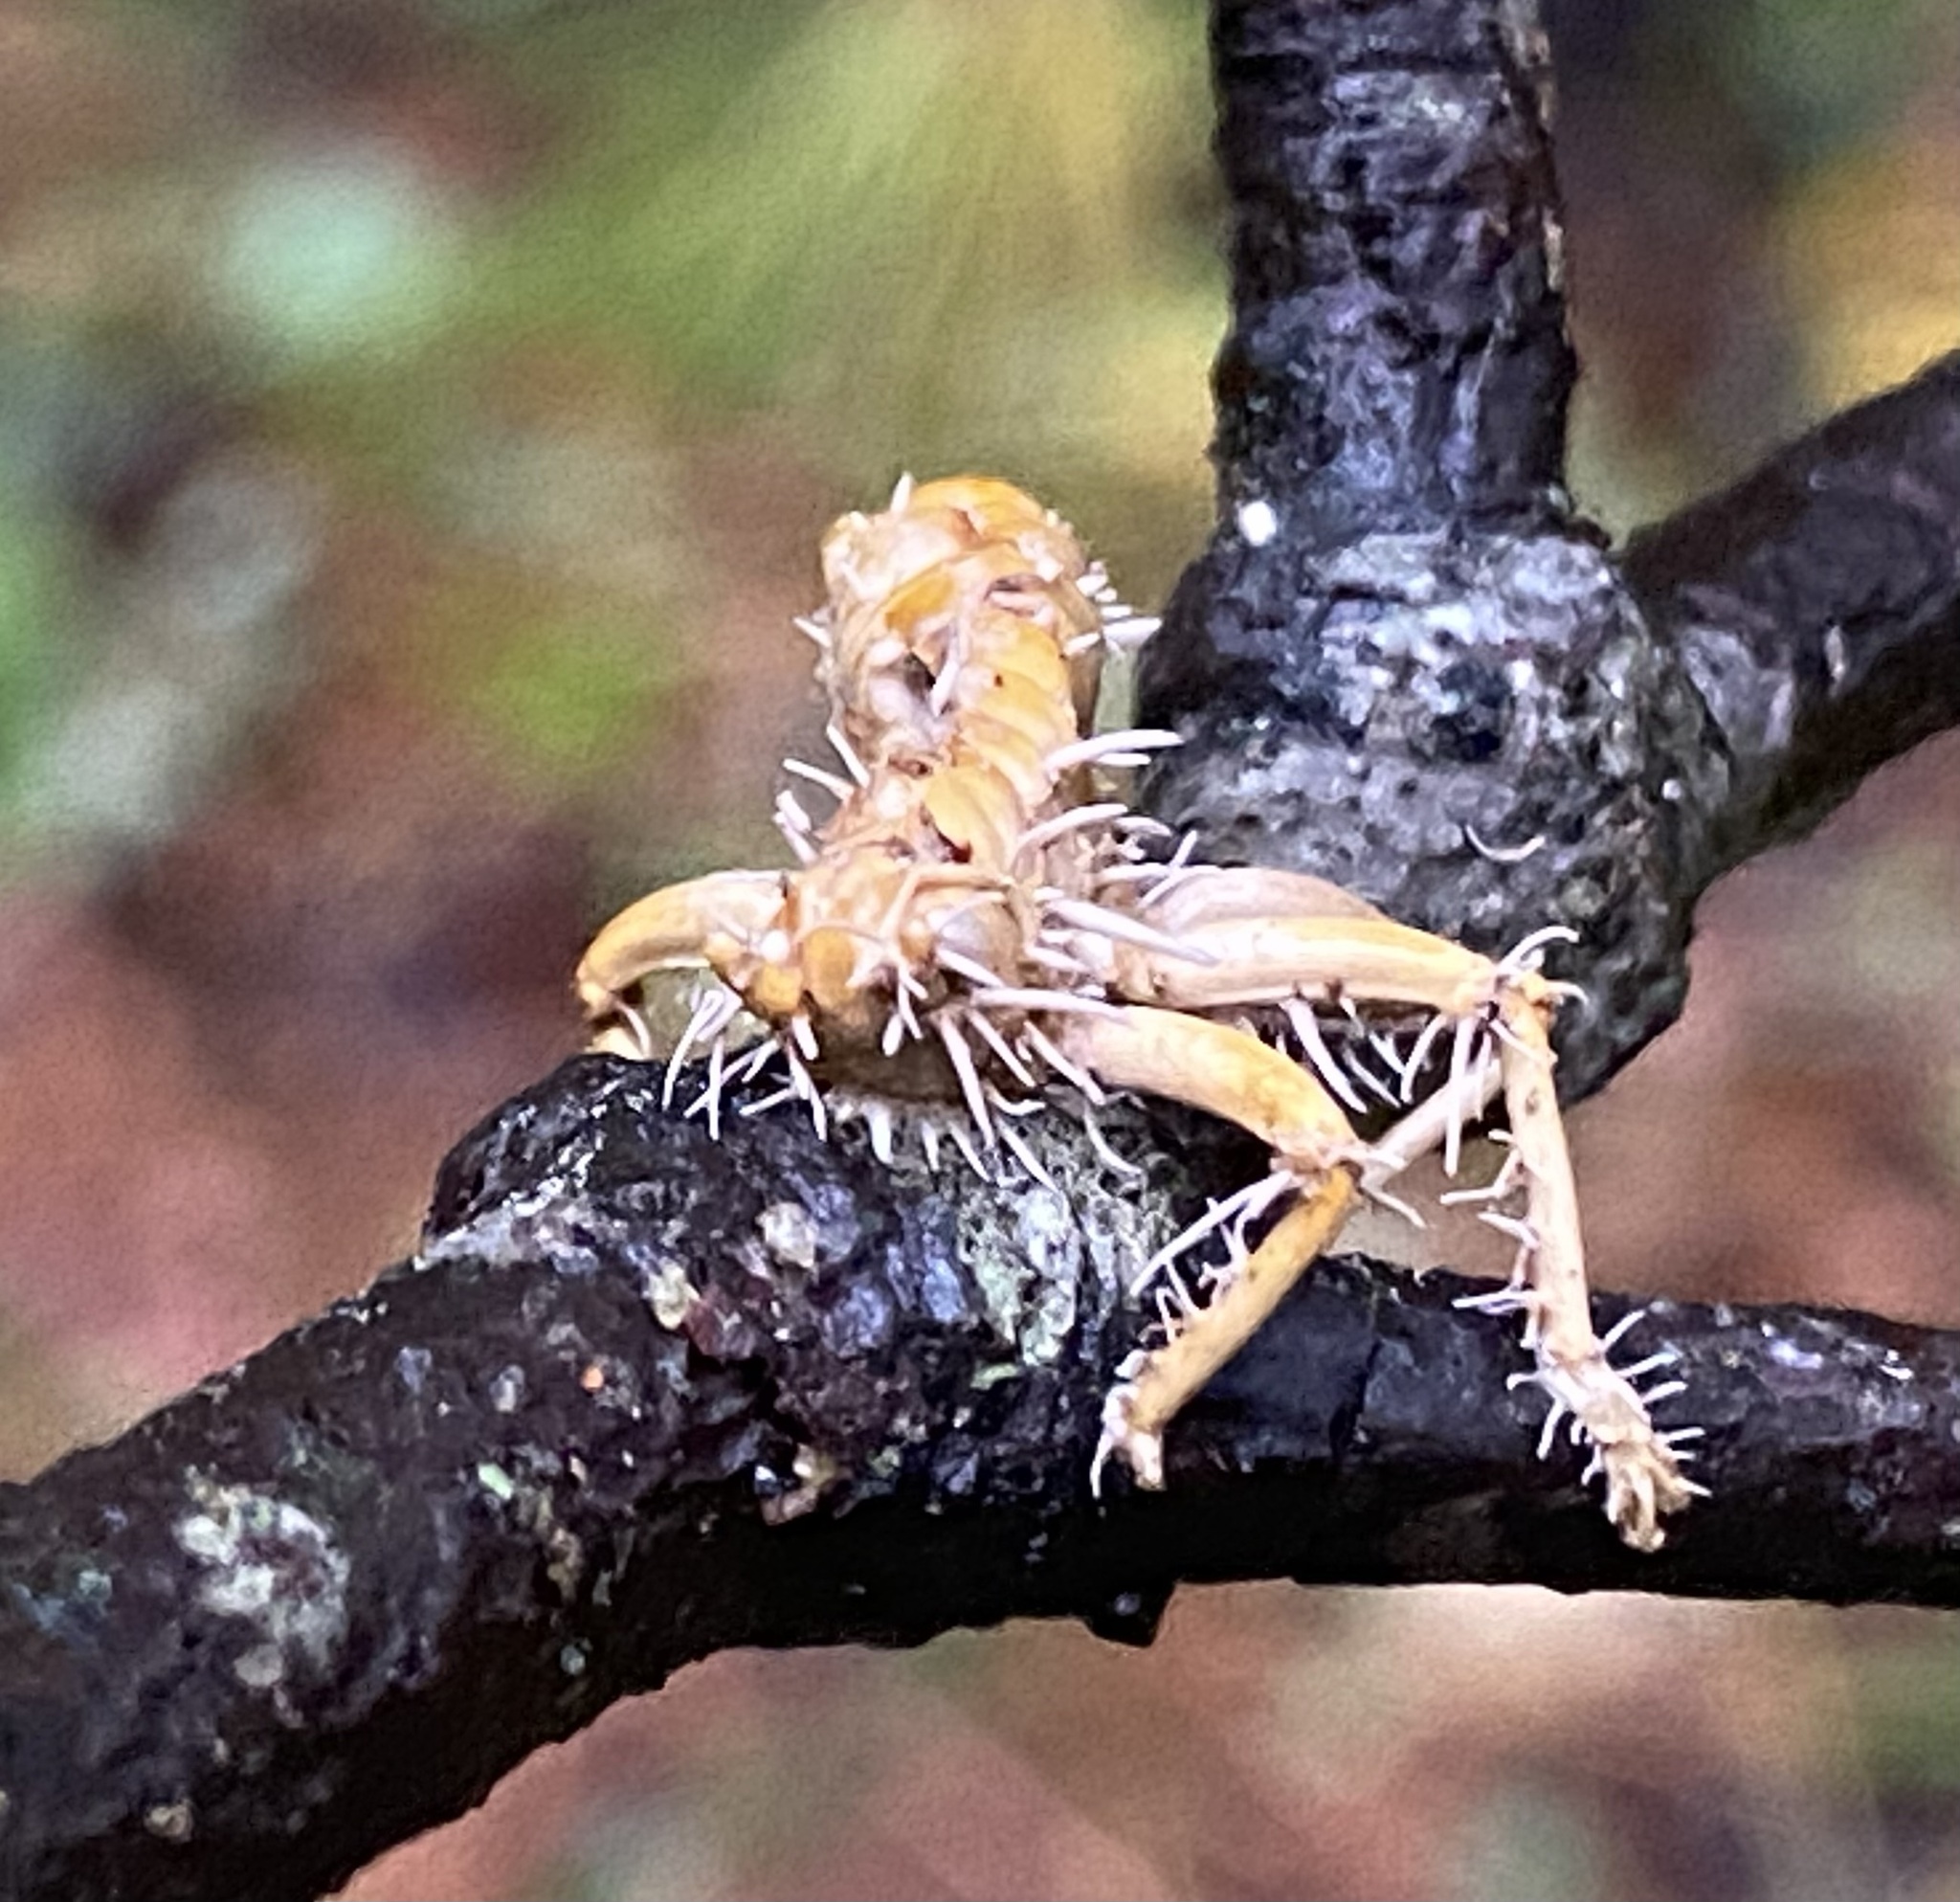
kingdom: Animalia
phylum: Arthropoda
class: Insecta
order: Orthoptera
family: Gryllacrididae
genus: Camptonotus
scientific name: Camptonotus carolinensis
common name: Carolina leaf-roller
